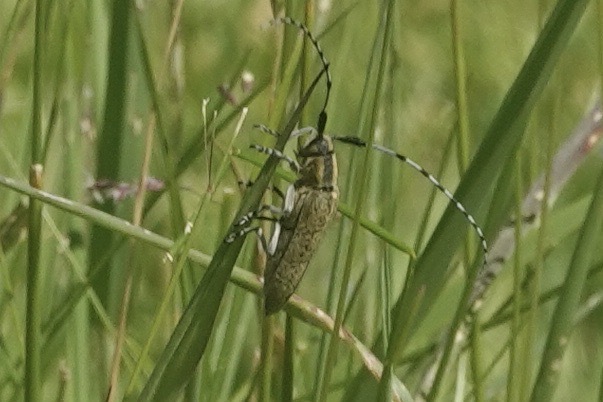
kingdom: Animalia
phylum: Arthropoda
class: Insecta
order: Coleoptera
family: Cerambycidae
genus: Agapanthia
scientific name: Agapanthia villosoviridescens
